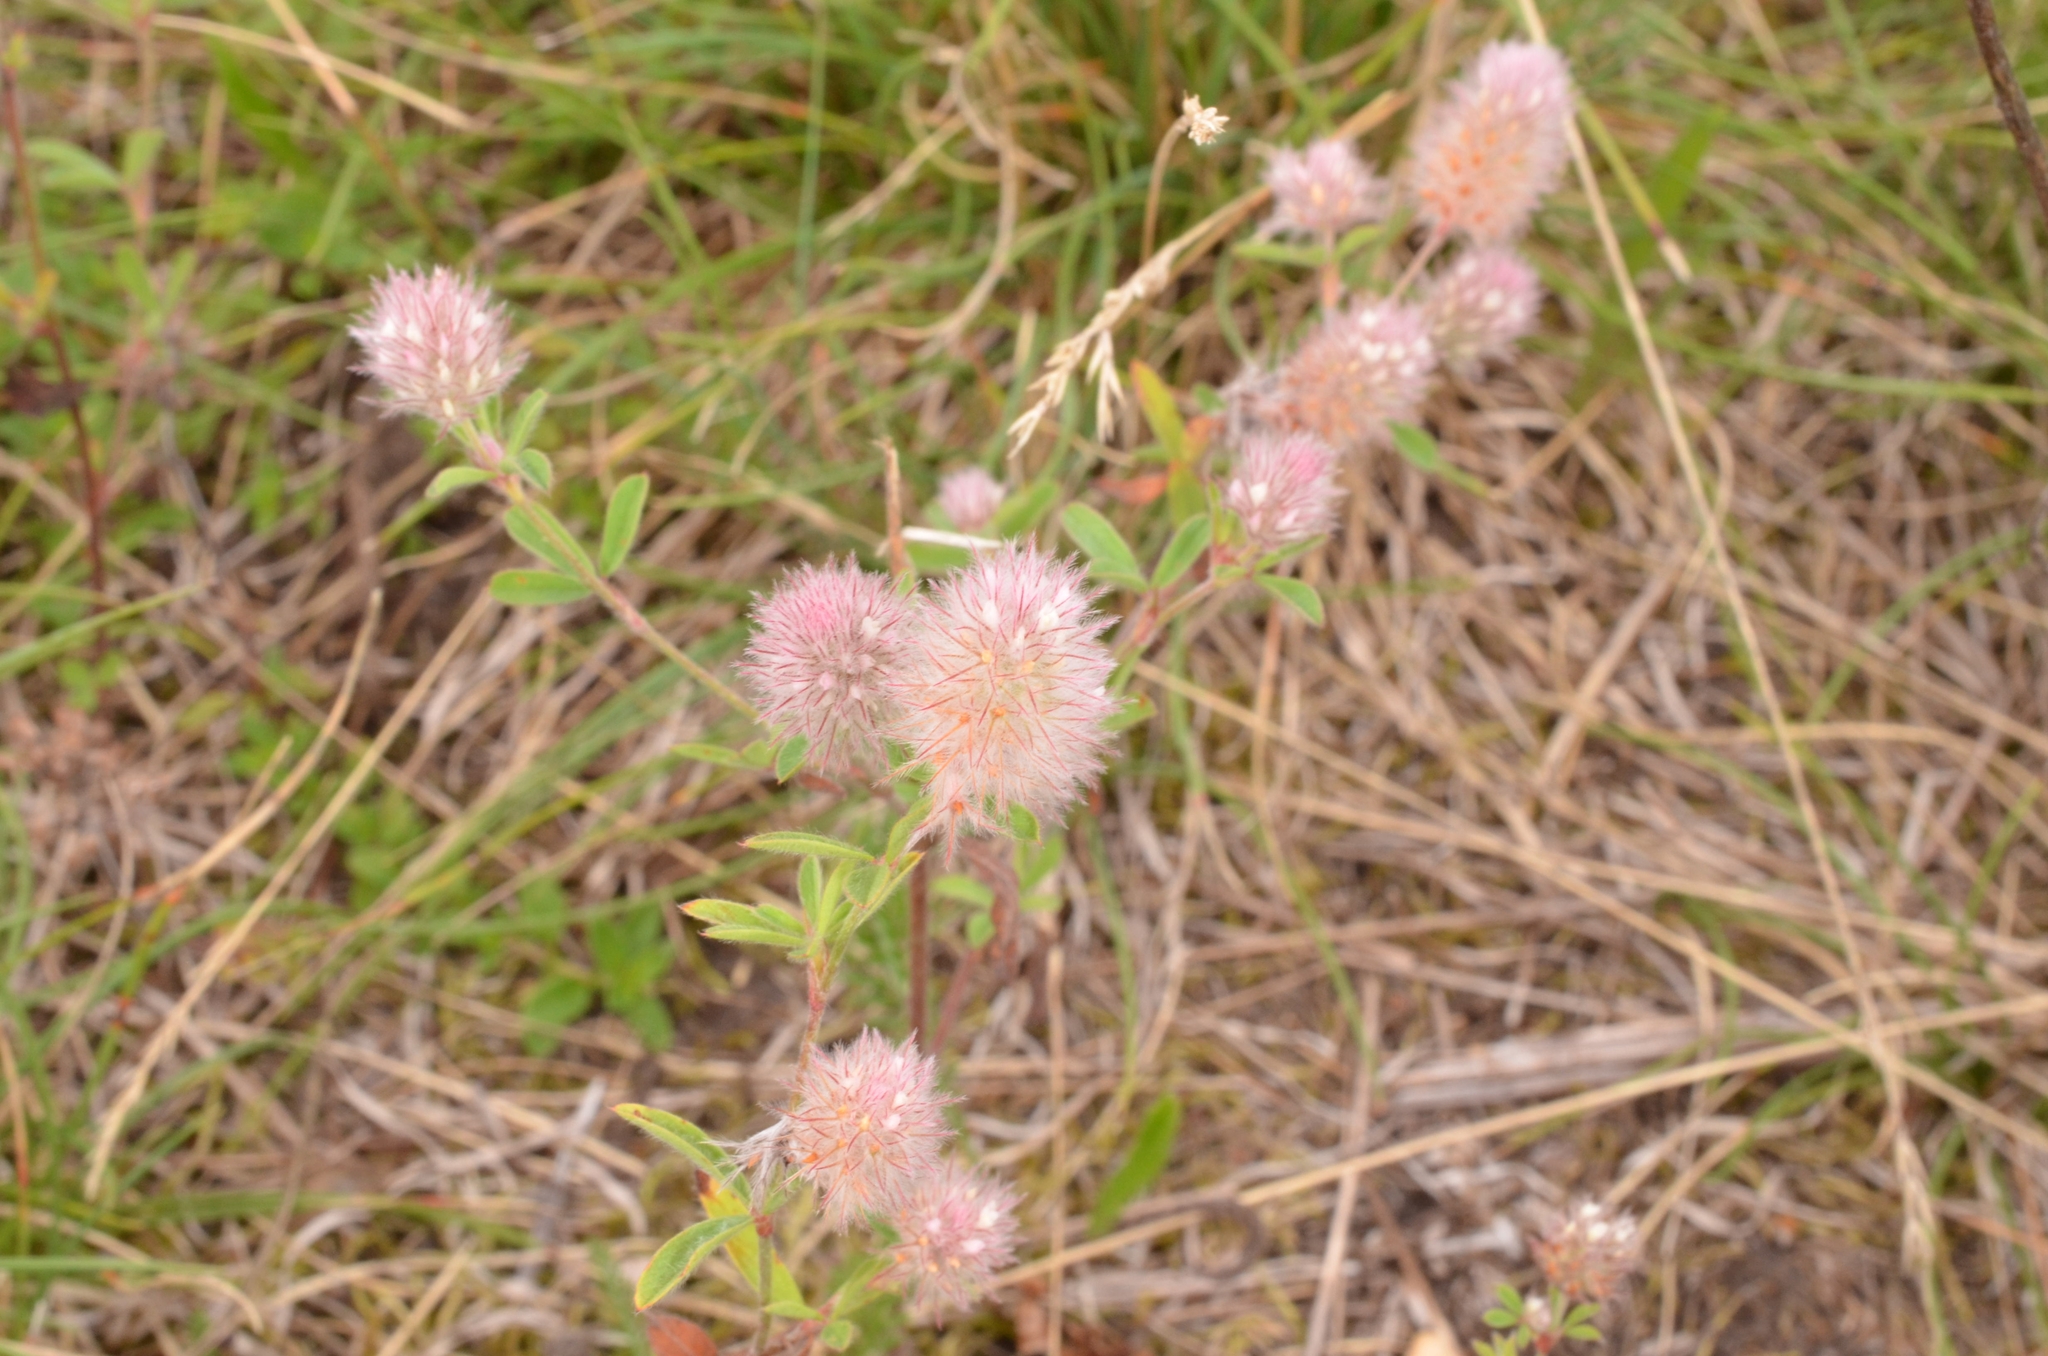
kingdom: Plantae
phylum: Tracheophyta
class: Magnoliopsida
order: Fabales
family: Fabaceae
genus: Trifolium
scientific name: Trifolium arvense
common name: Hare's-foot clover
